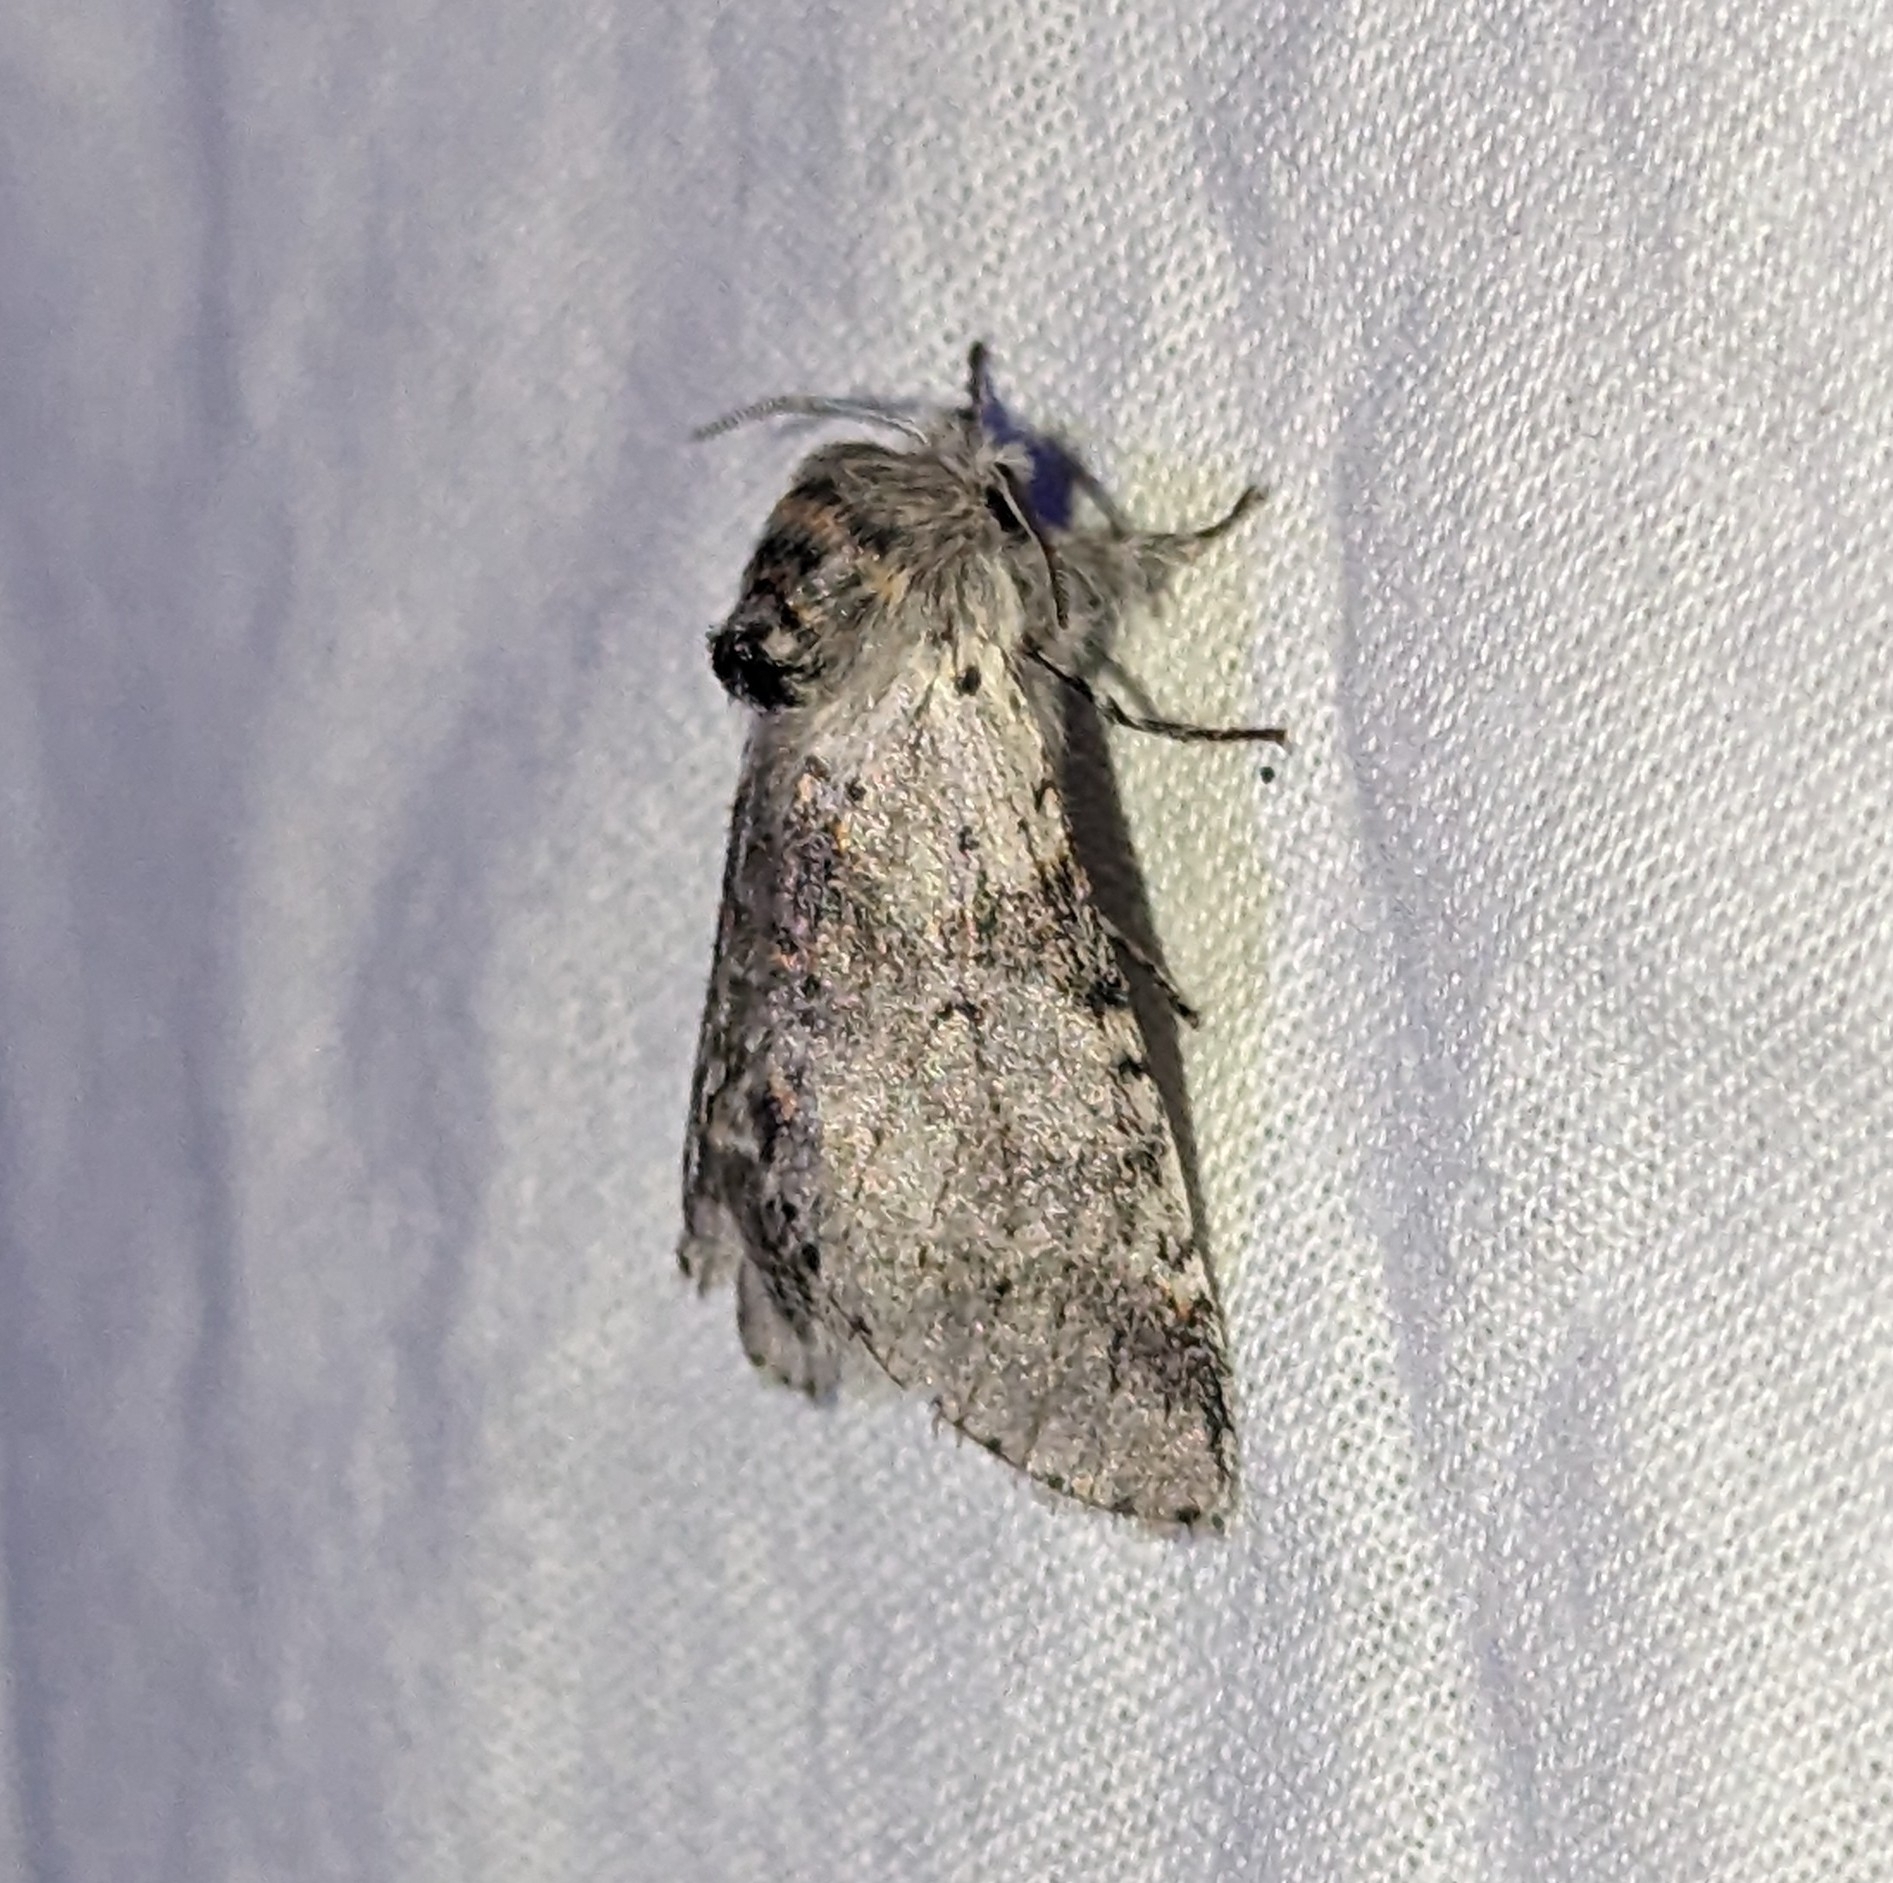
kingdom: Animalia
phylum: Arthropoda
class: Insecta
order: Lepidoptera
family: Notodontidae
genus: Furcula
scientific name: Furcula cinerea
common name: Gray furcula
